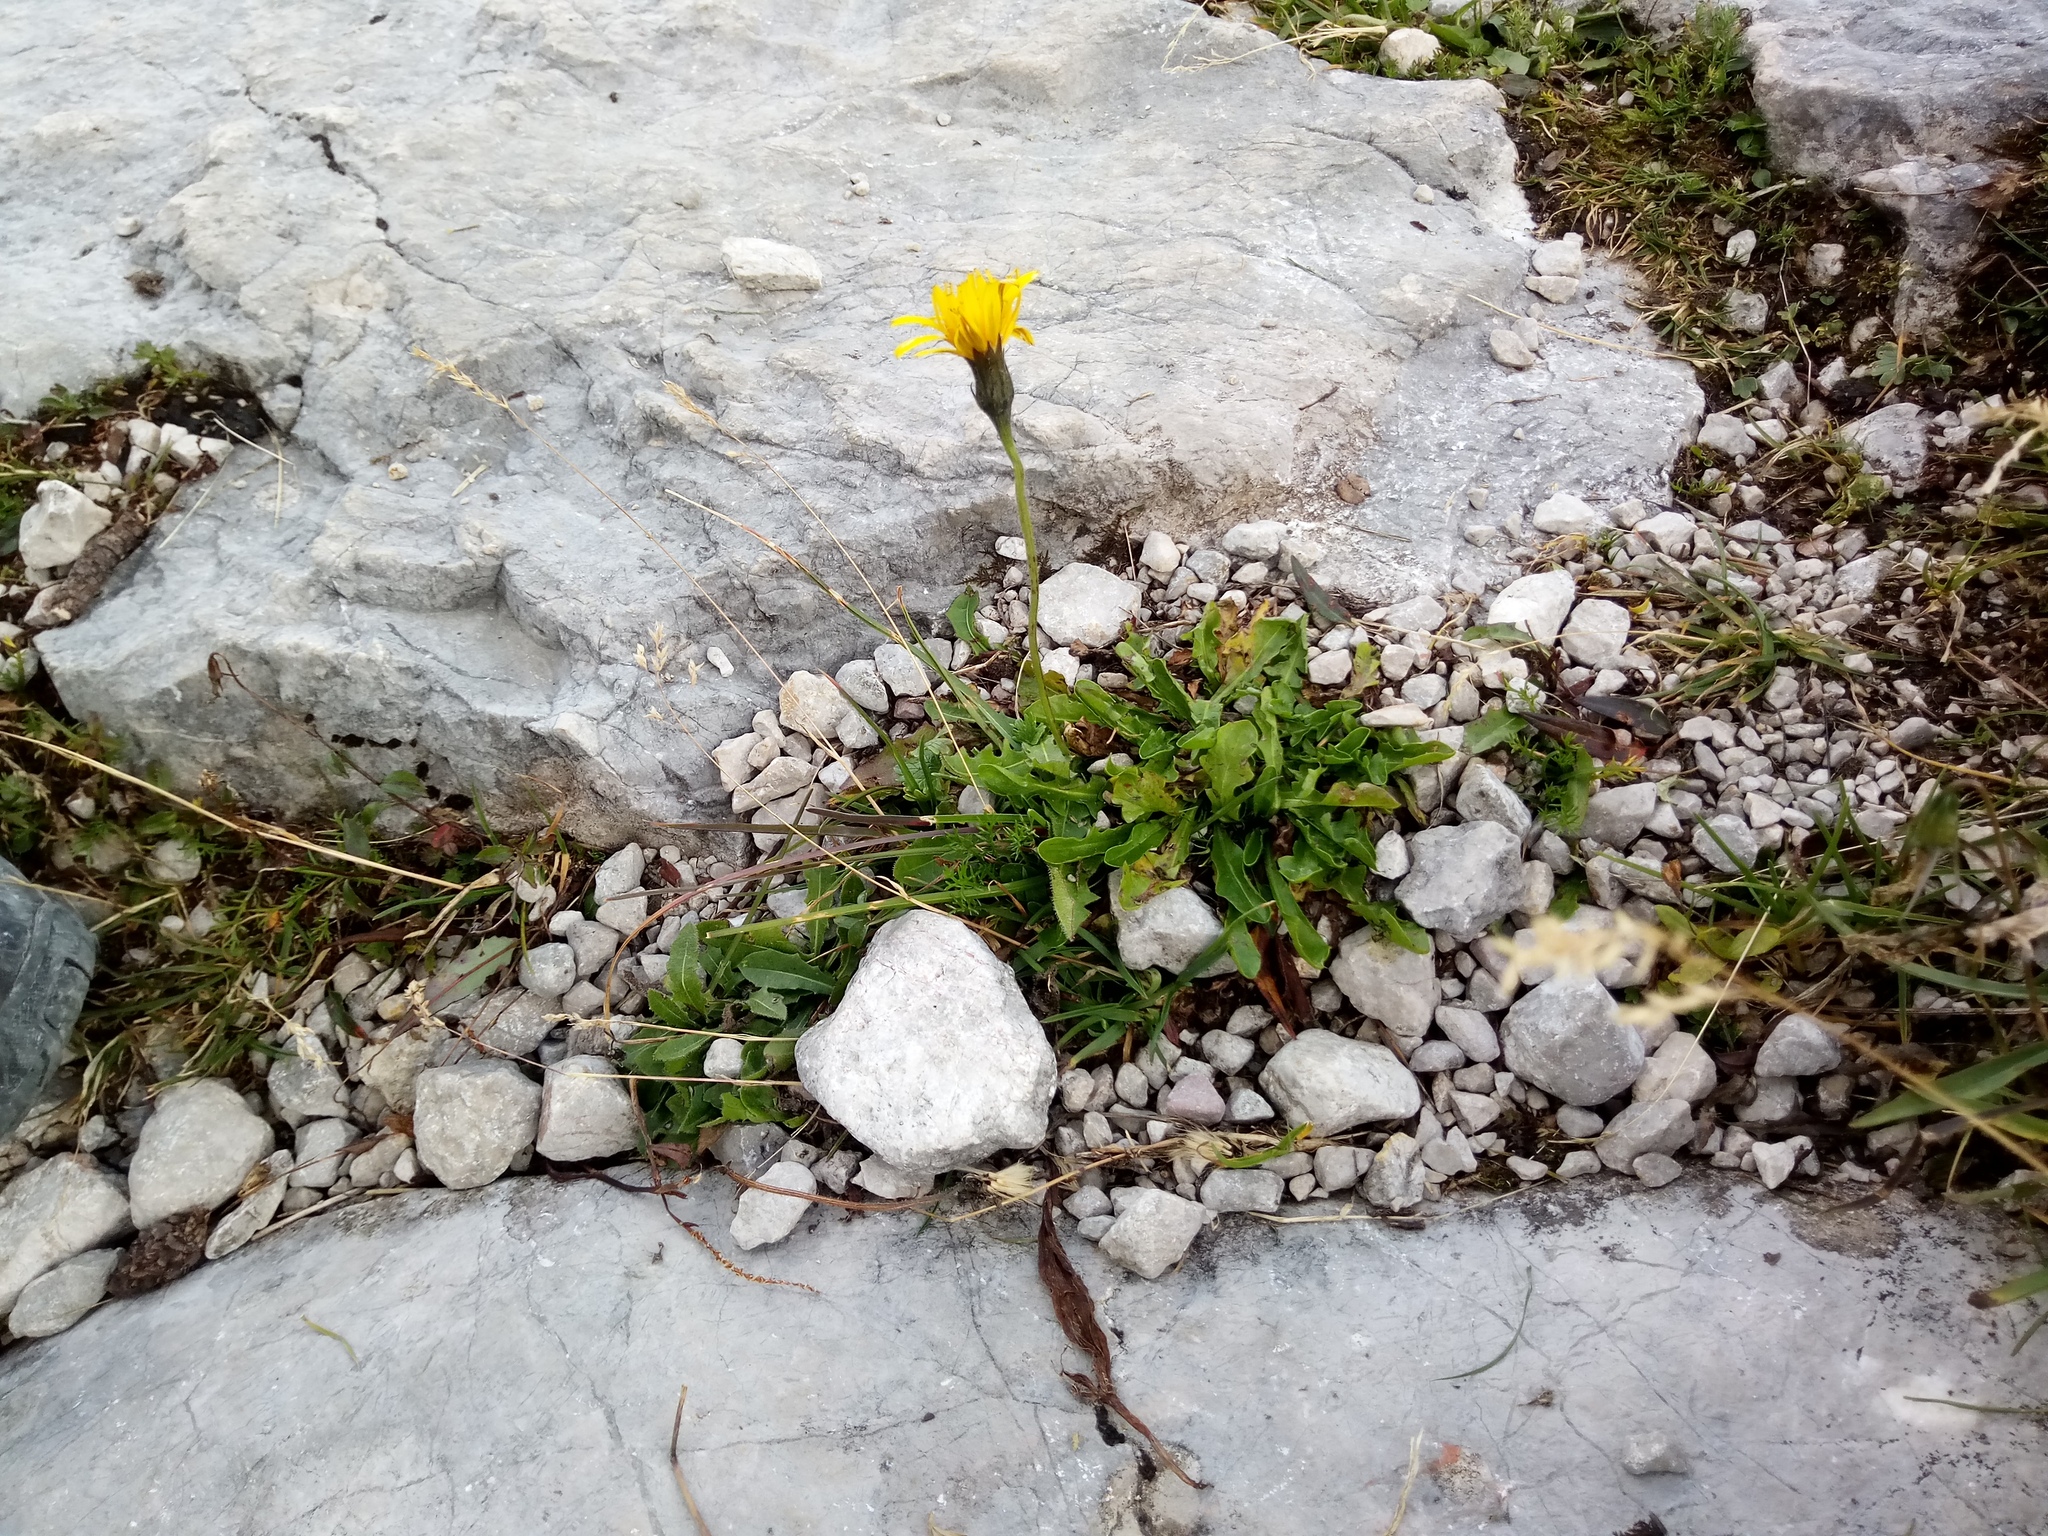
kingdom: Plantae
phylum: Tracheophyta
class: Magnoliopsida
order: Asterales
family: Asteraceae
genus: Leontodon
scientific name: Leontodon hispidus
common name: Rough hawkbit
